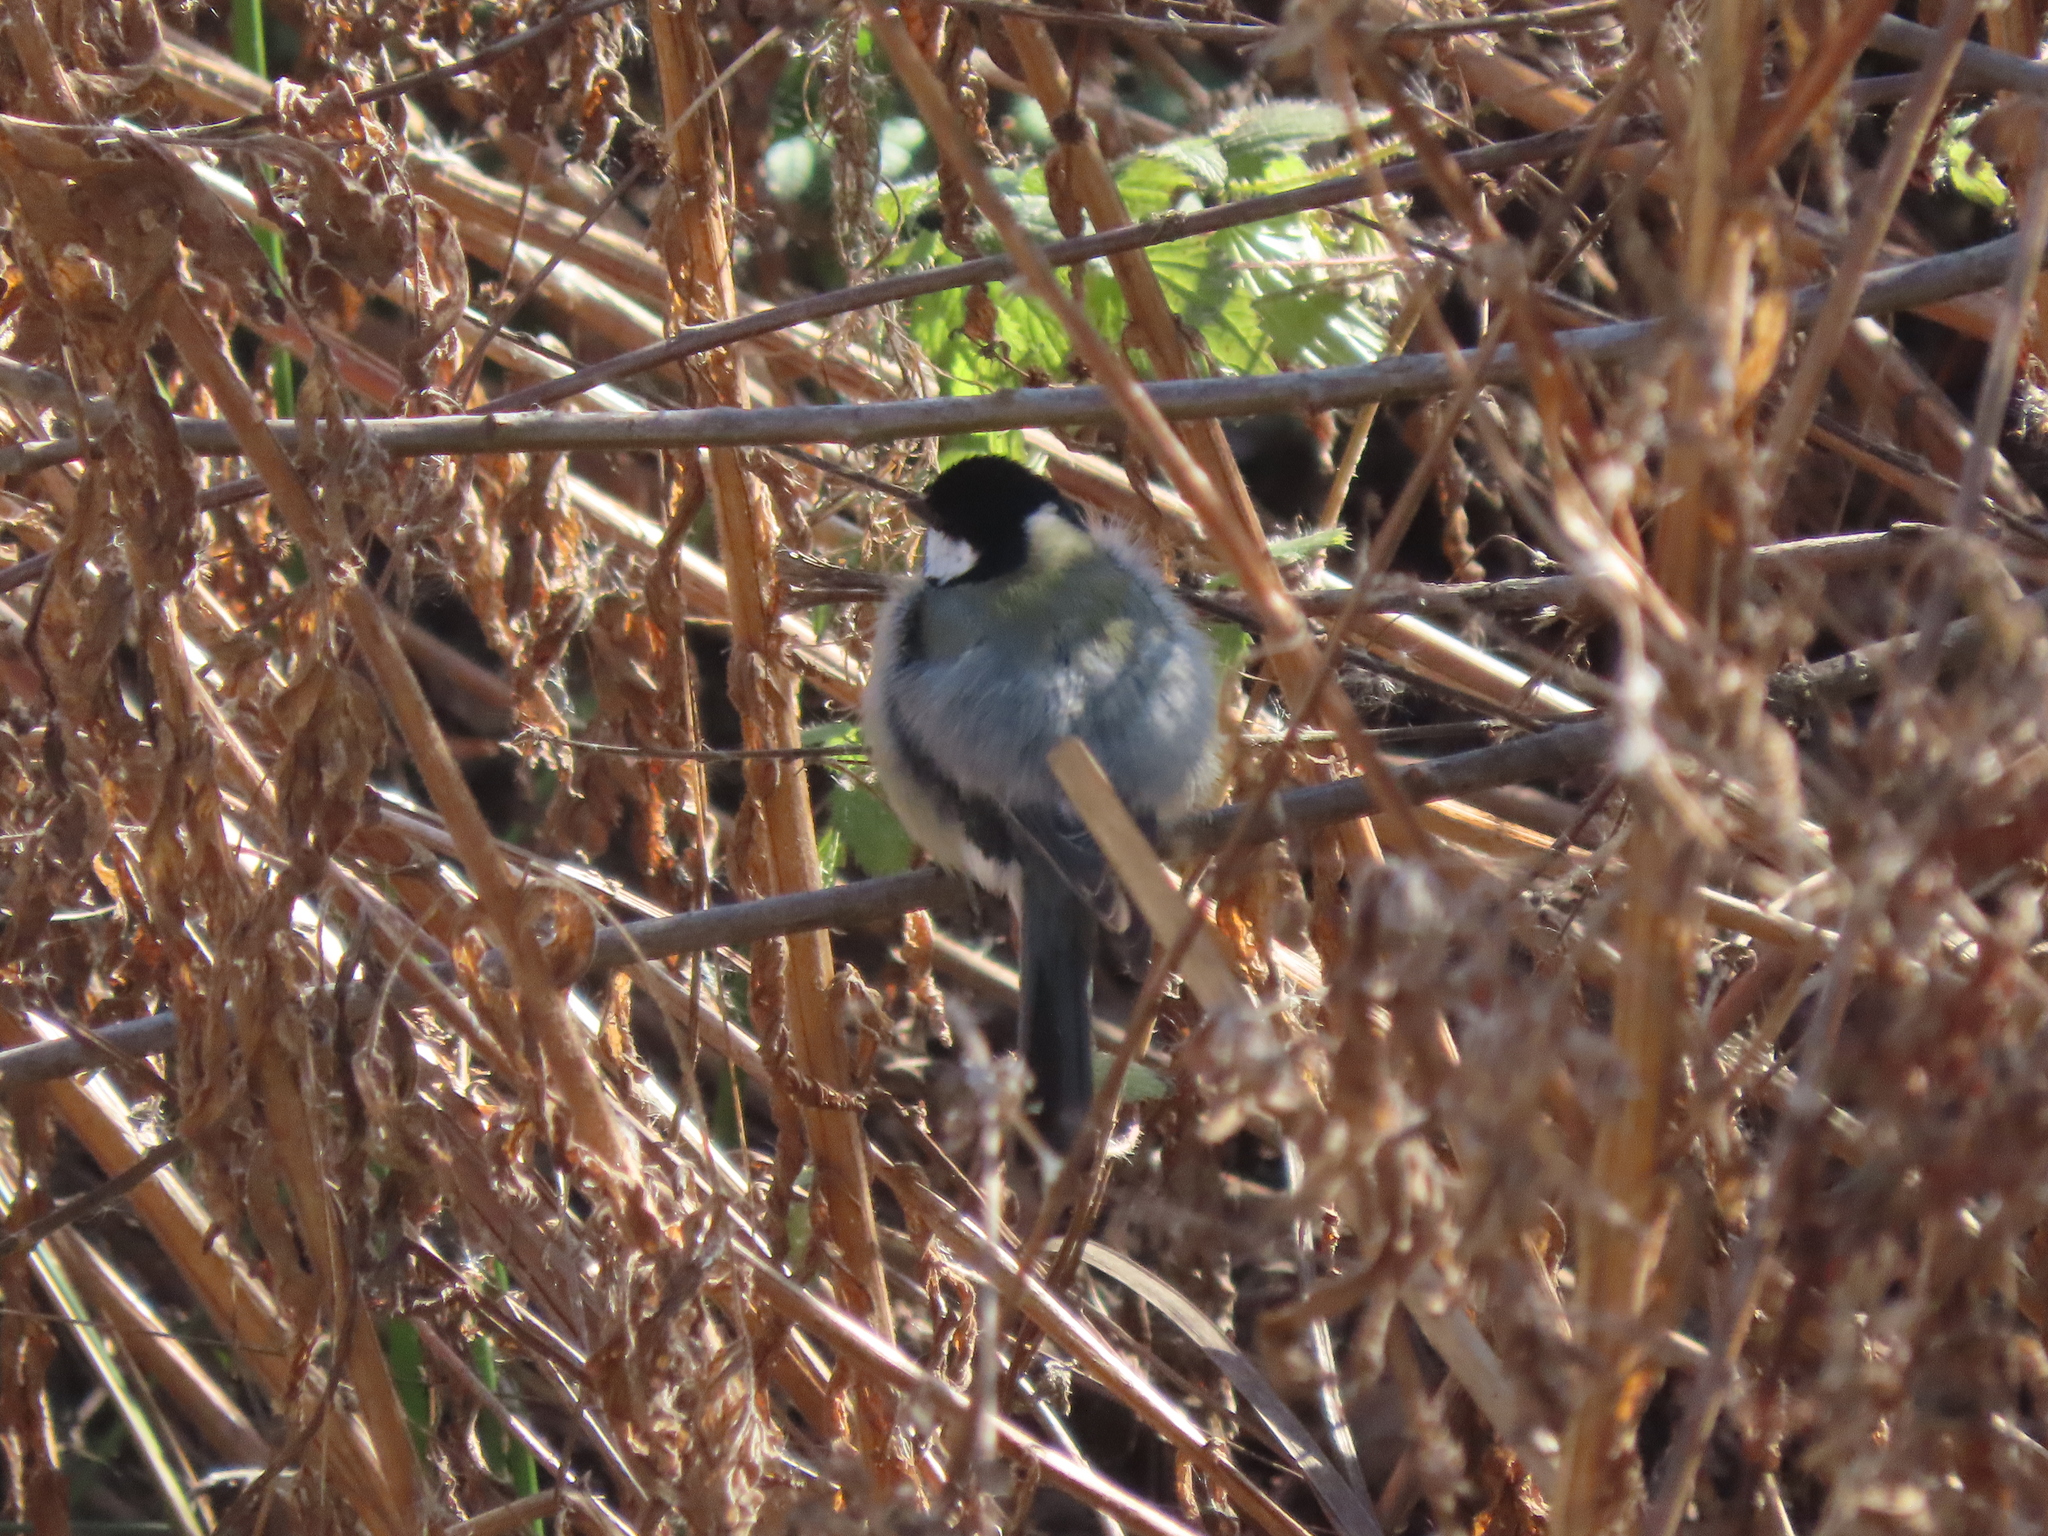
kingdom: Animalia
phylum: Chordata
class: Aves
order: Passeriformes
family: Paridae
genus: Periparus
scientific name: Periparus ater
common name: Coal tit
